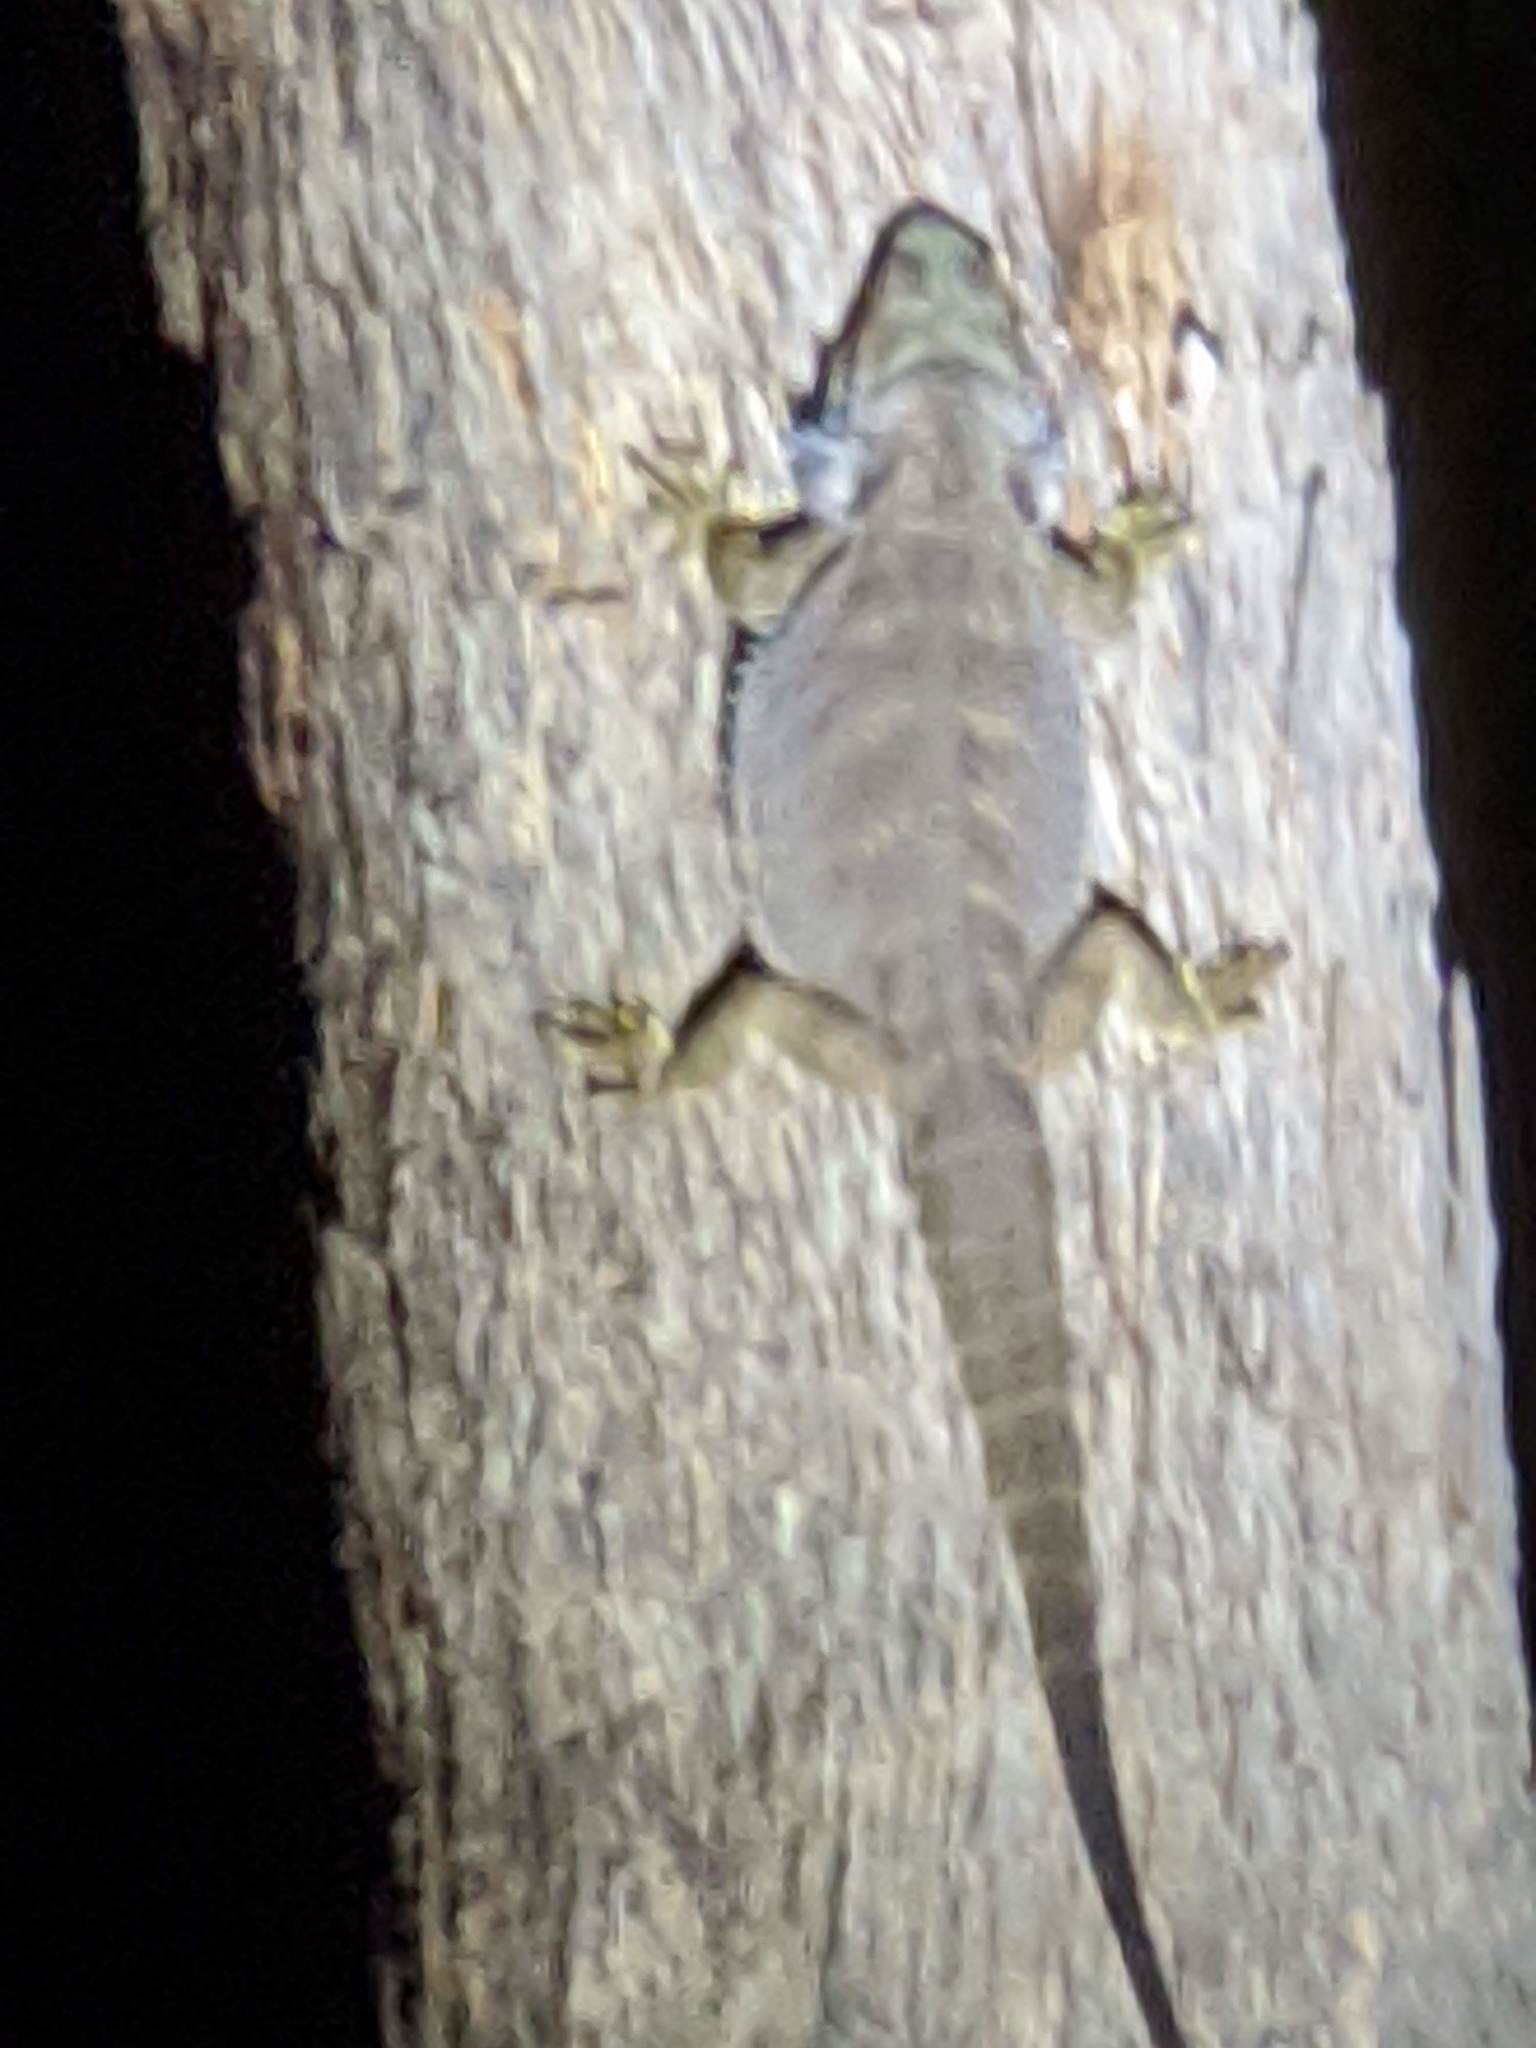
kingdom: Animalia
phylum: Chordata
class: Squamata
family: Agamidae
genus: Pogona
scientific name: Pogona barbata
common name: Bearded dragon
